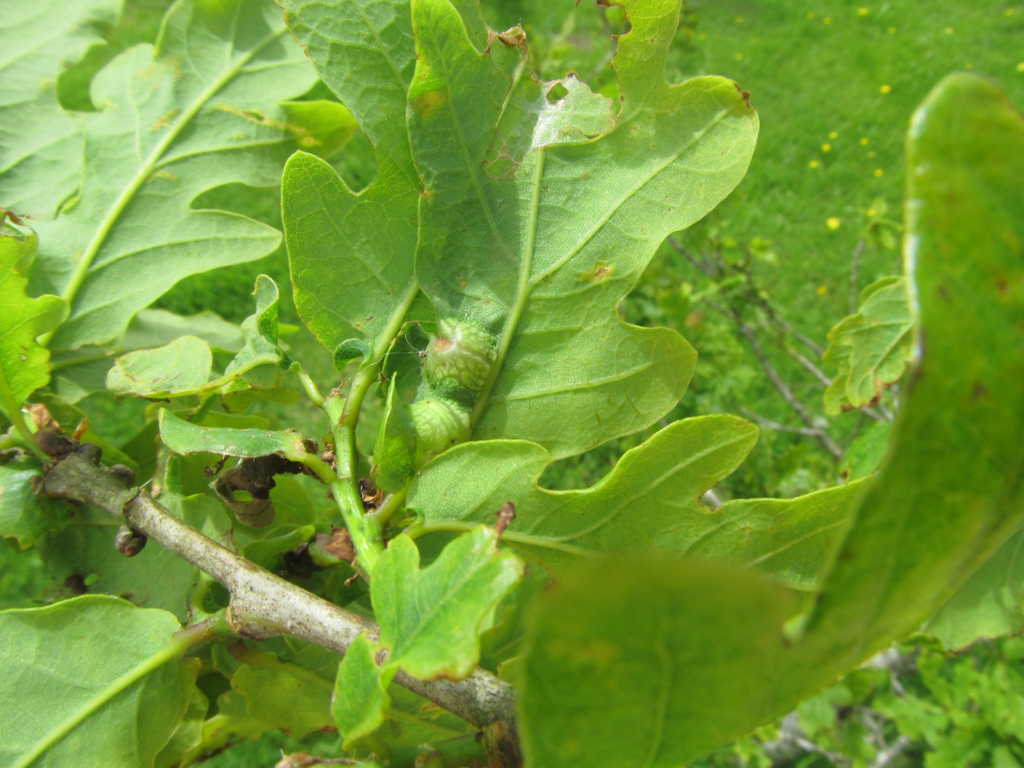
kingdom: Animalia
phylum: Arthropoda
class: Insecta
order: Hymenoptera
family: Cynipidae
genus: Andricus
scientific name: Andricus curvator
